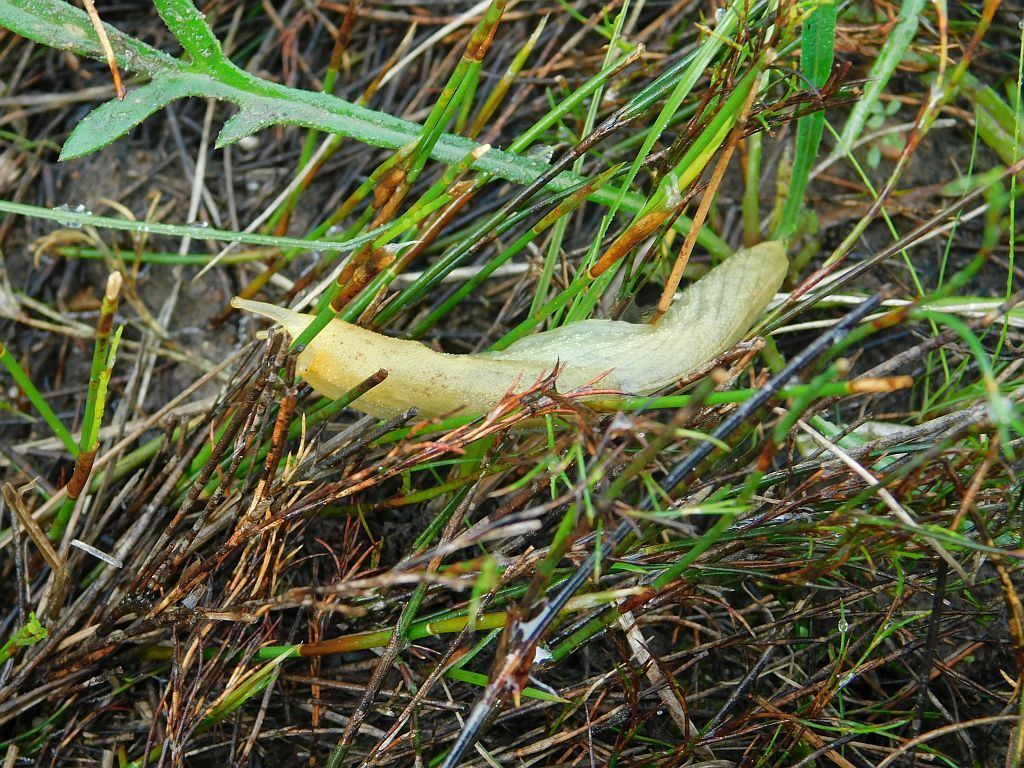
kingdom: Animalia
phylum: Mollusca
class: Gastropoda
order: Stylommatophora
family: Oopeltidae
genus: Oopelta
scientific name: Oopelta flavescens
